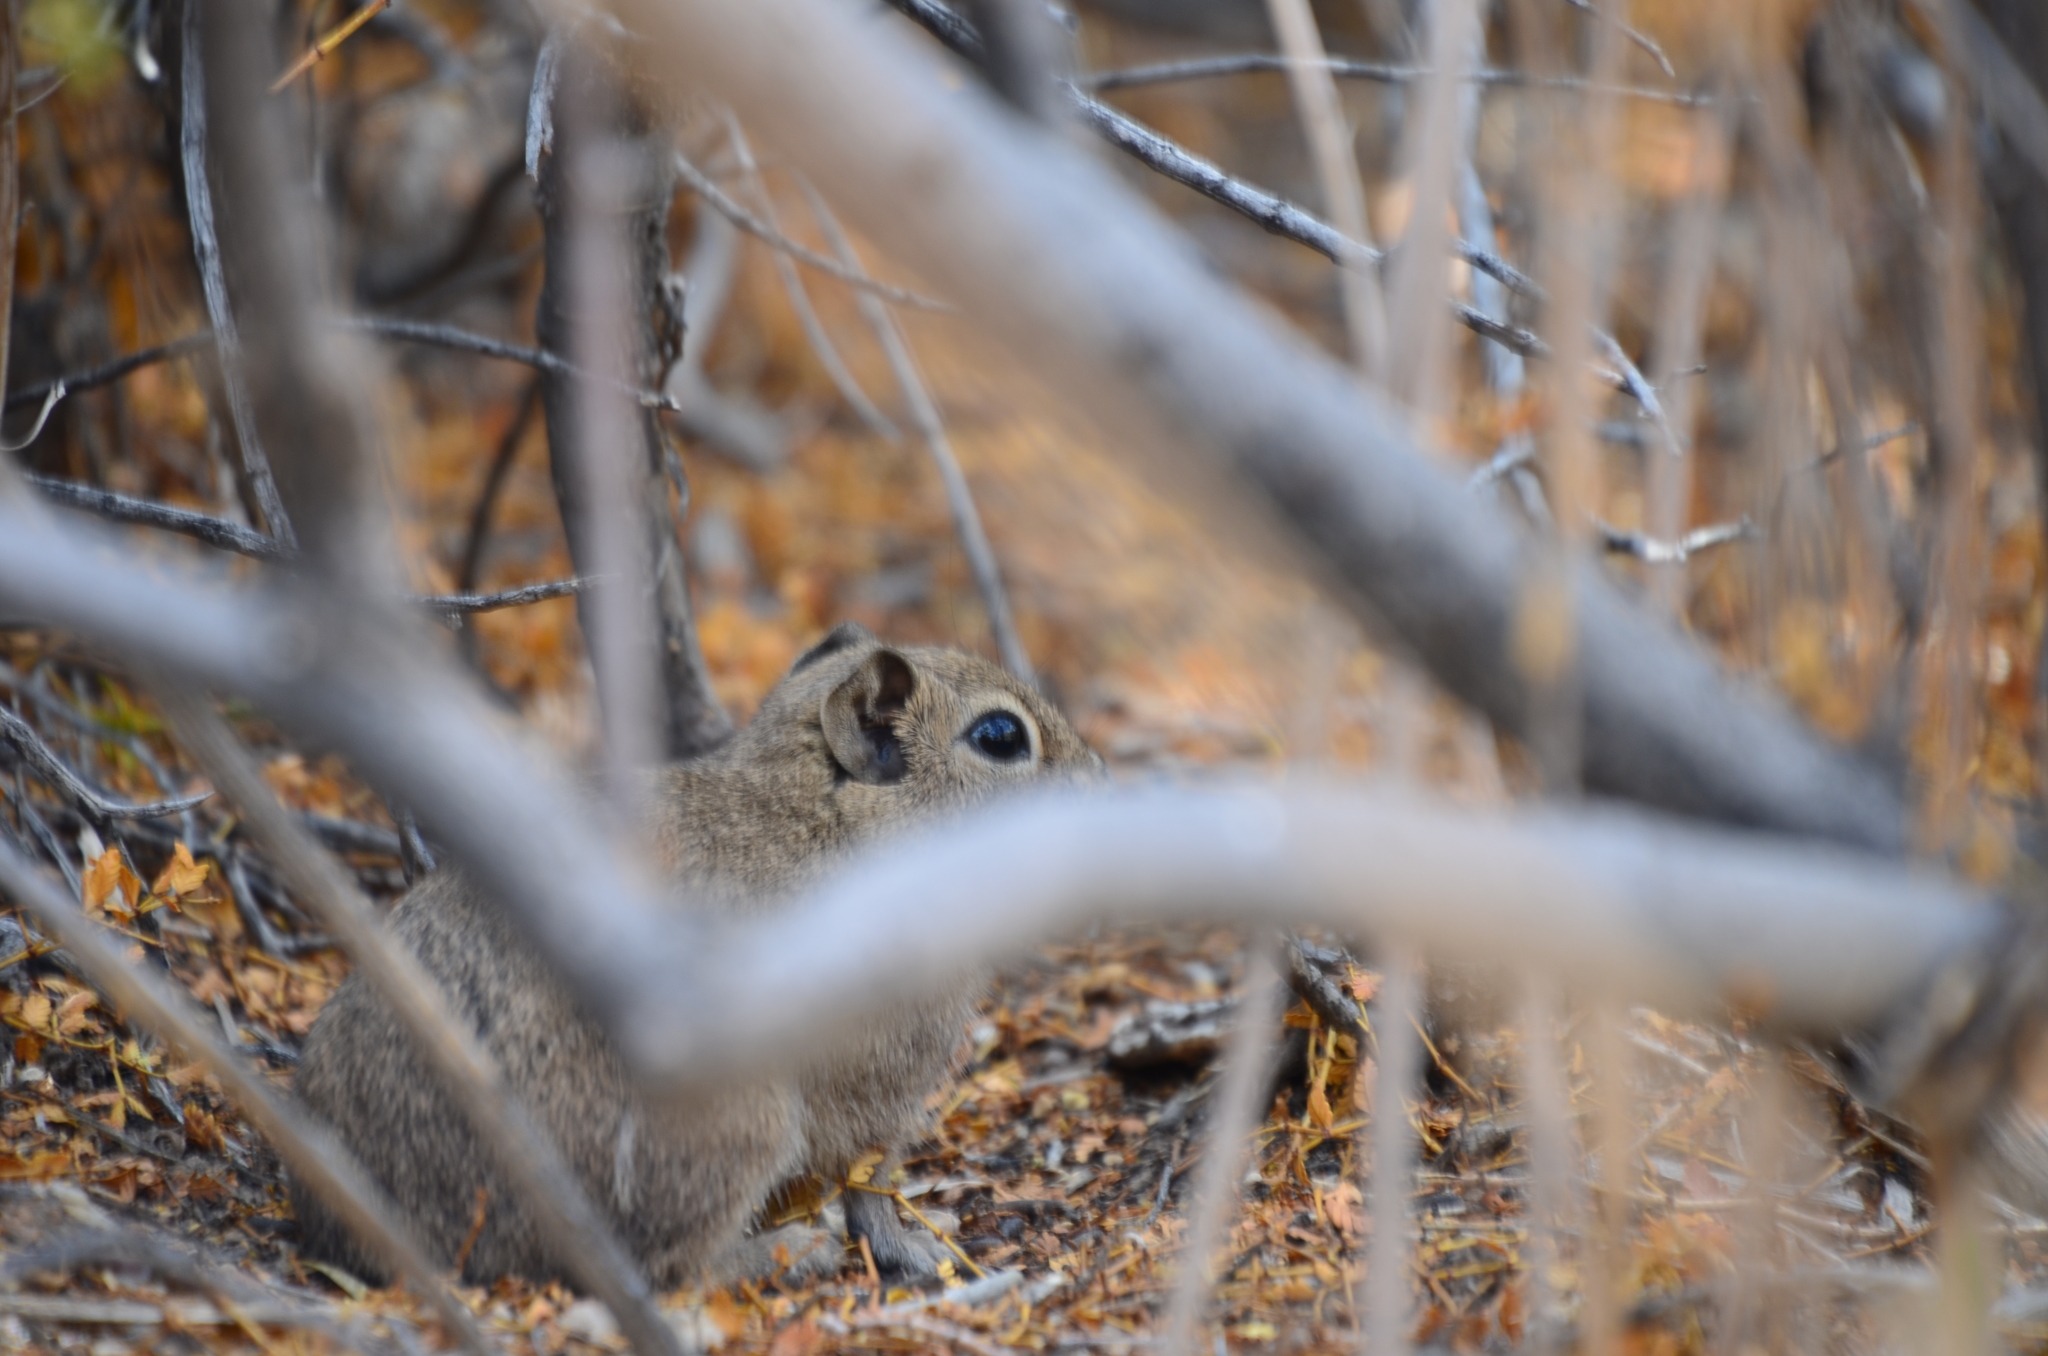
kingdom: Animalia
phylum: Chordata
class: Mammalia
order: Rodentia
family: Caviidae
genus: Microcavia
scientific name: Microcavia australis
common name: Southern mountain cavy
